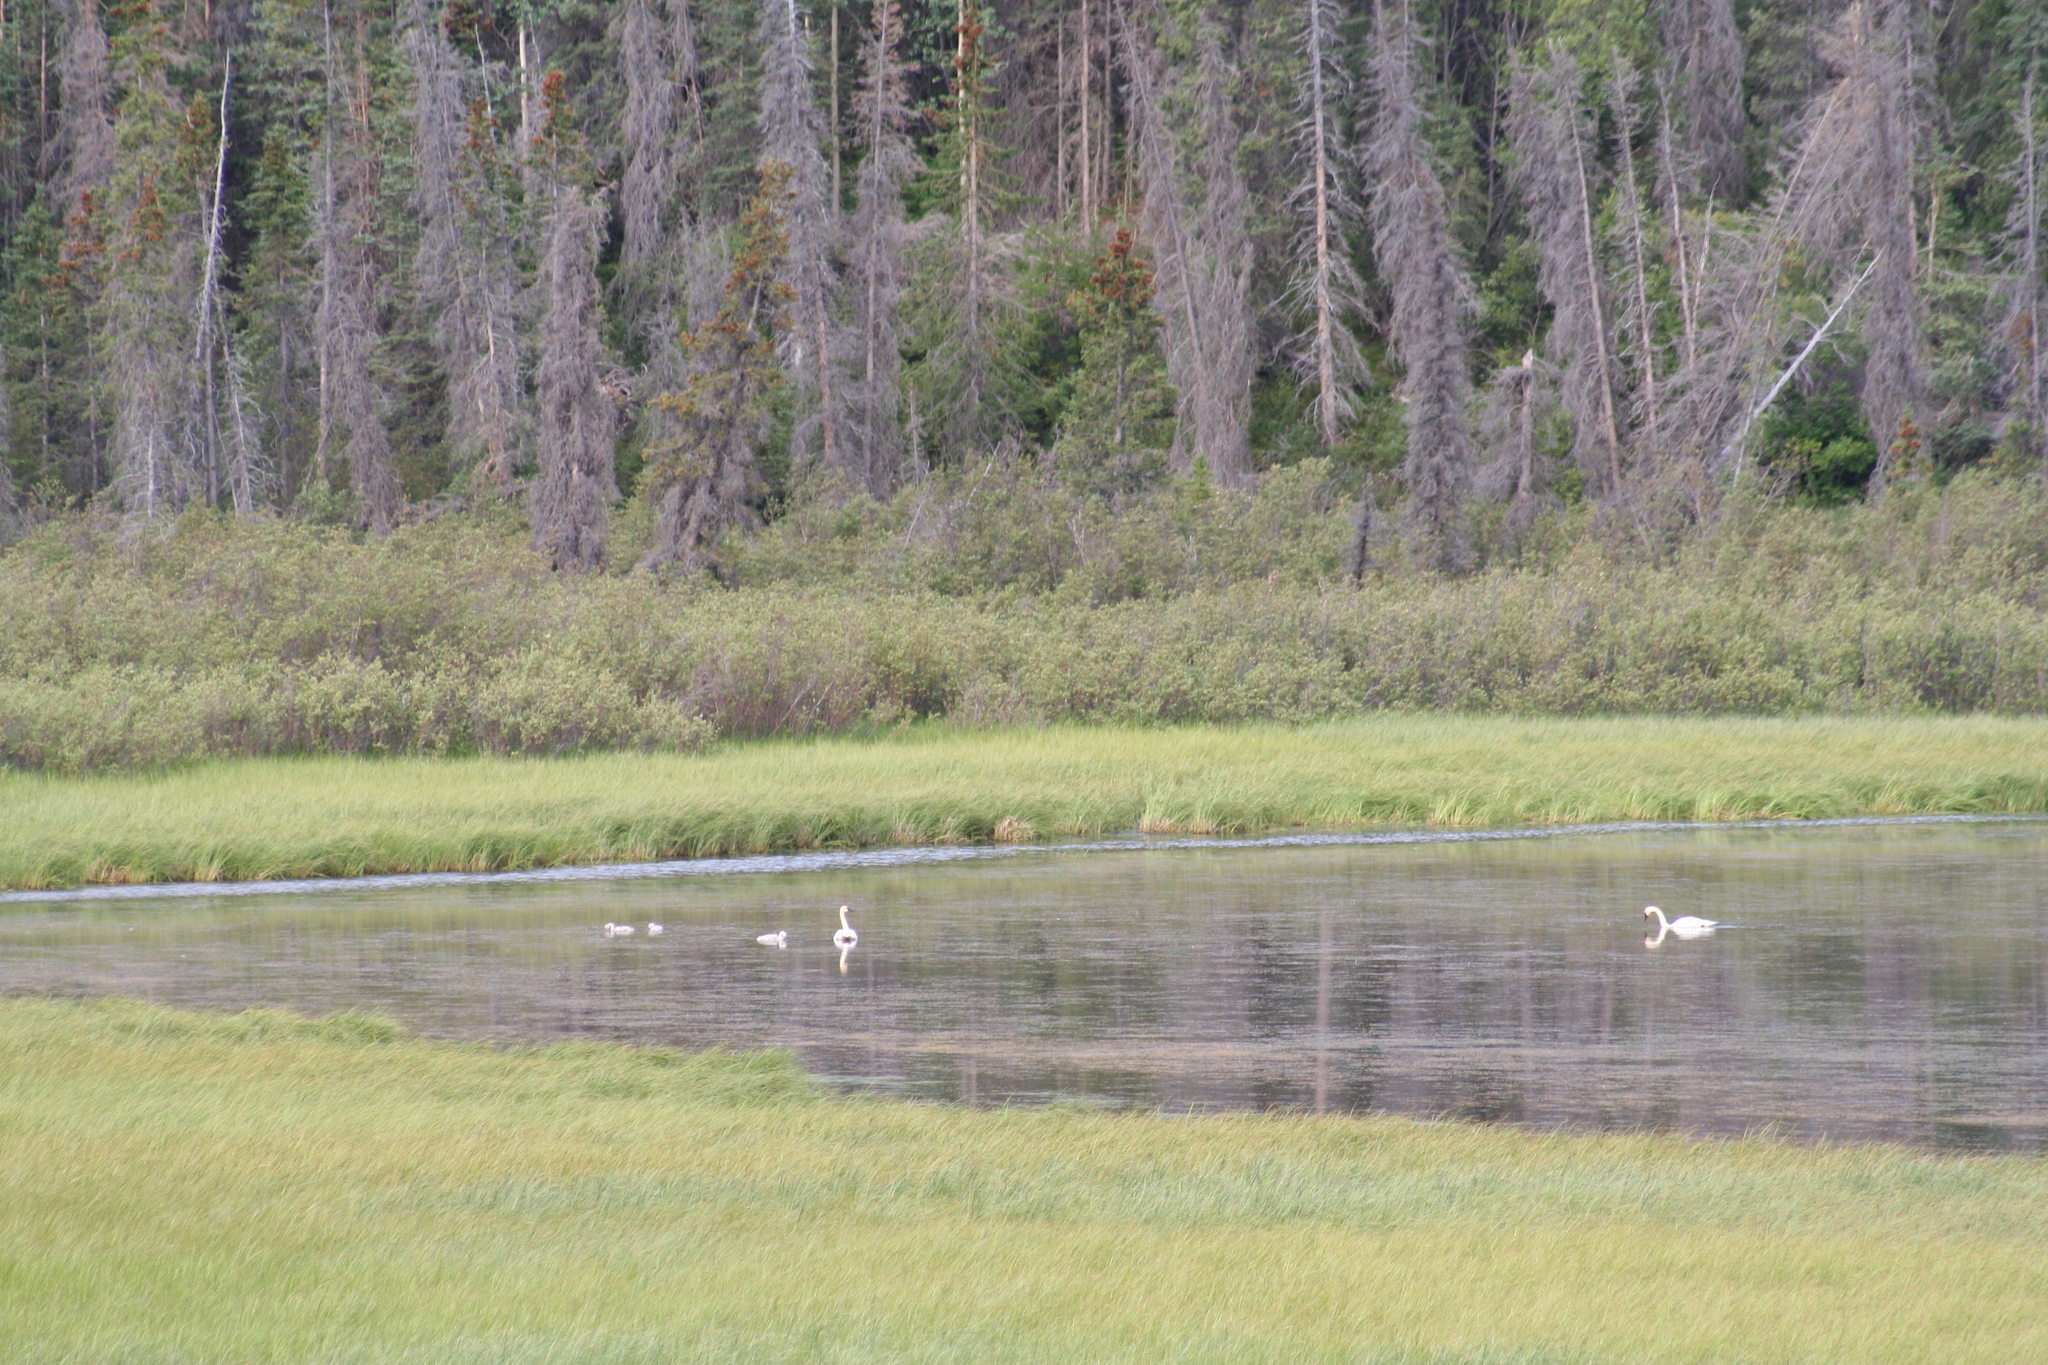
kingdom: Animalia
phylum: Chordata
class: Aves
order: Anseriformes
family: Anatidae
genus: Cygnus
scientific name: Cygnus buccinator
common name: Trumpeter swan
